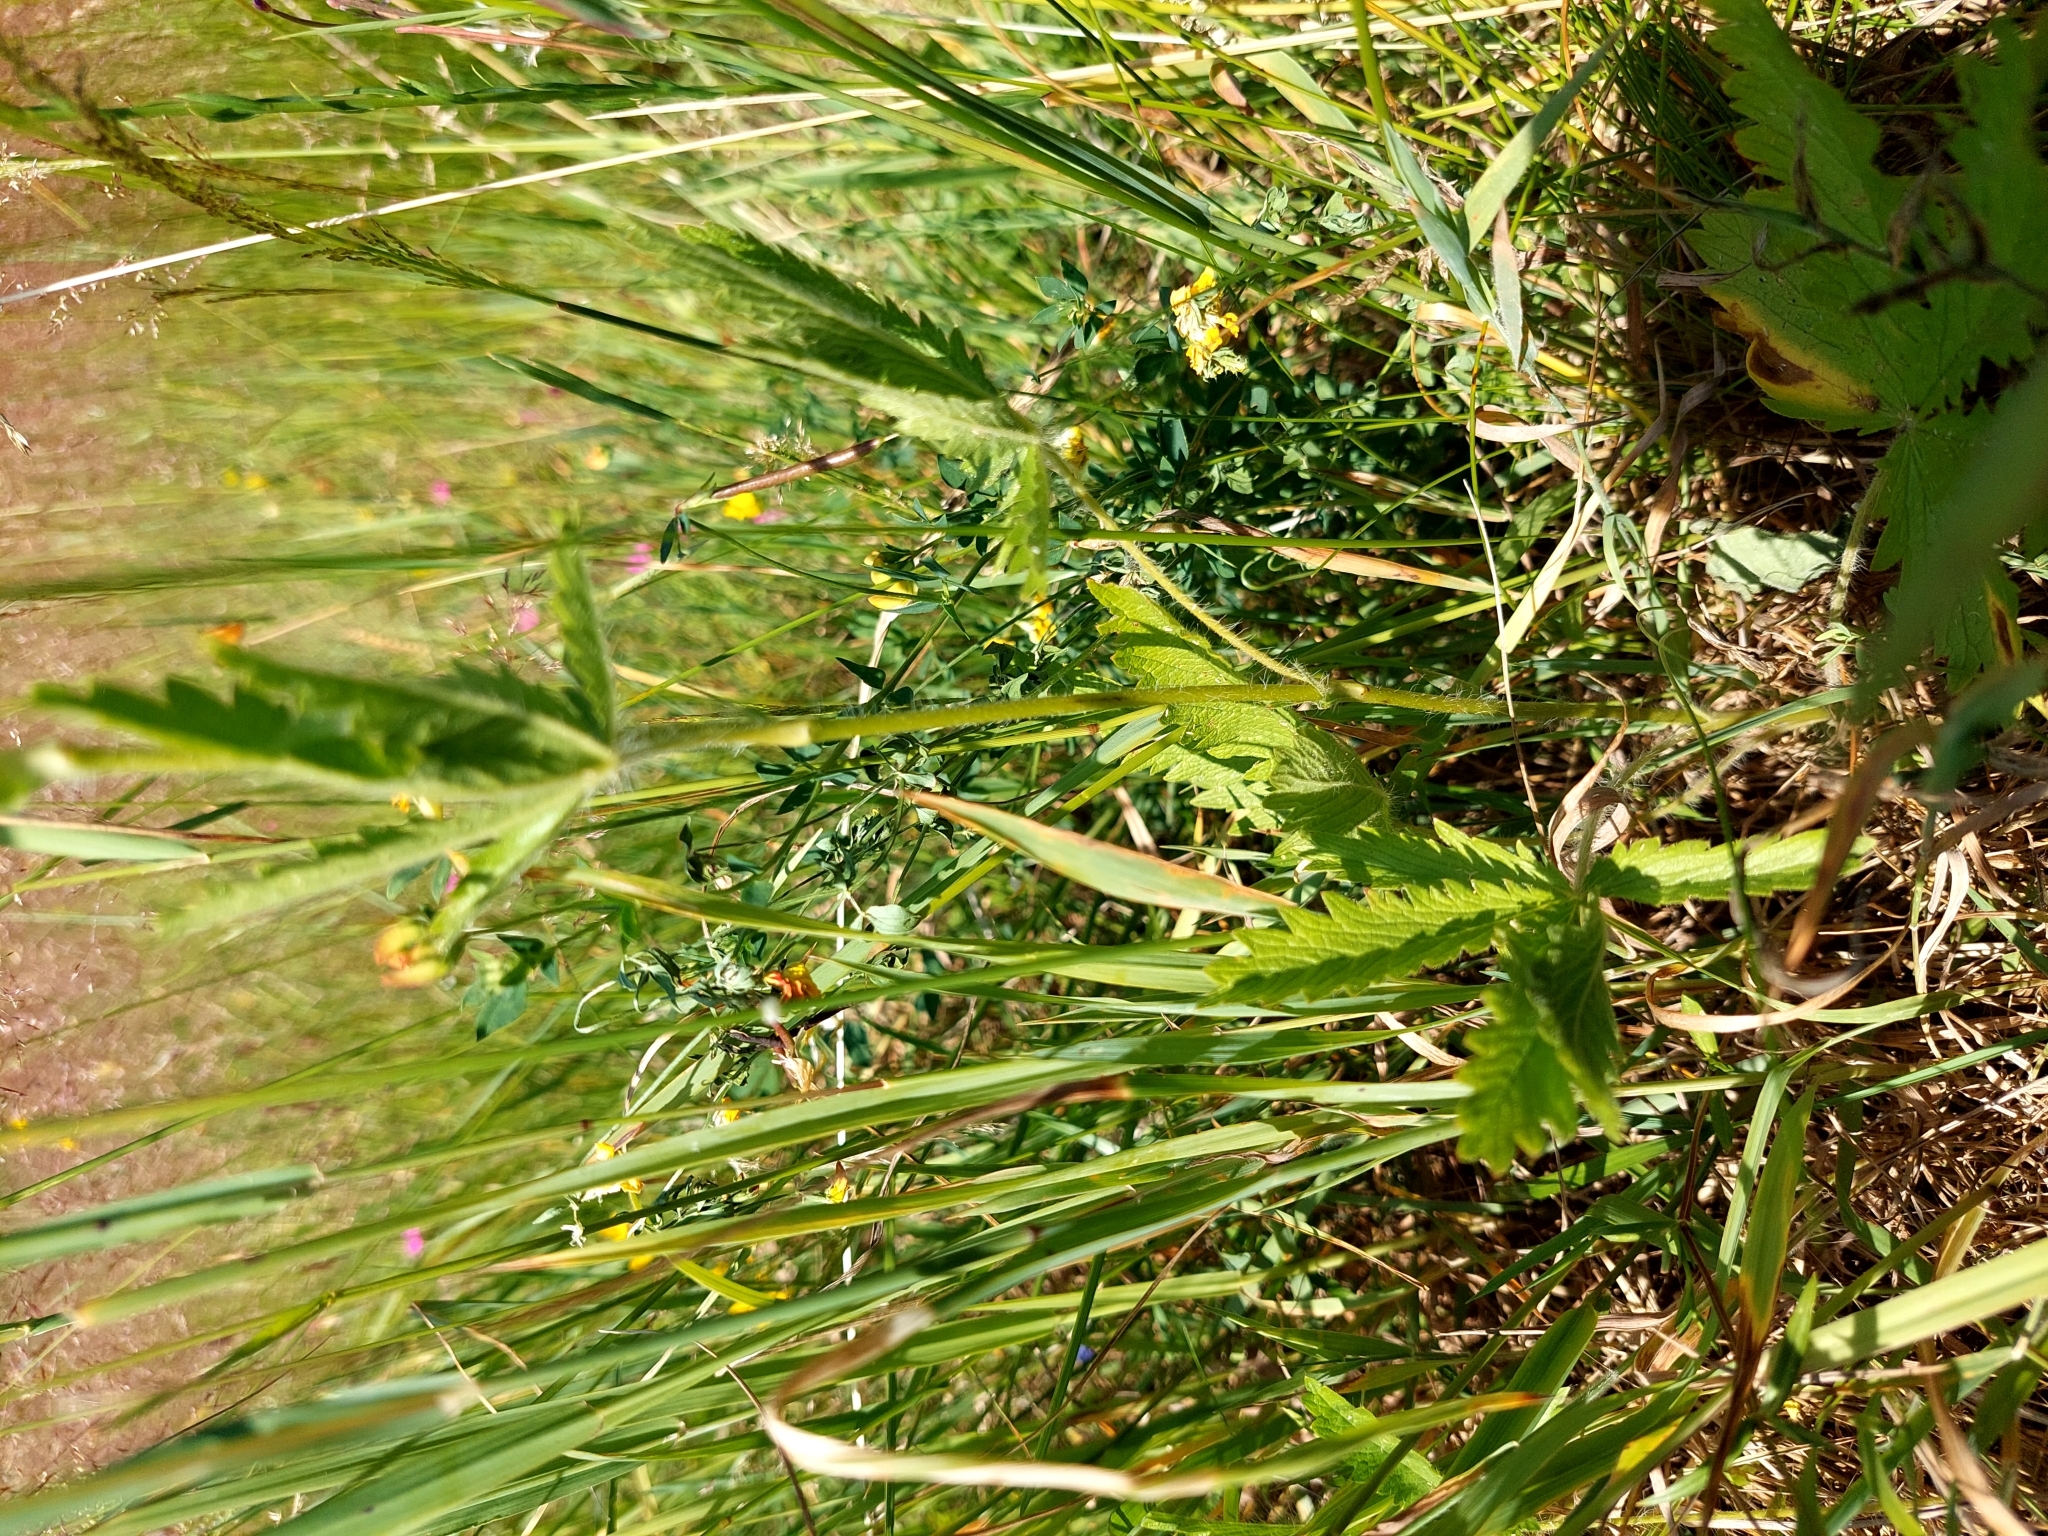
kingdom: Plantae
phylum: Tracheophyta
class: Magnoliopsida
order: Rosales
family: Rosaceae
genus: Potentilla
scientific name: Potentilla recta
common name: Sulphur cinquefoil
